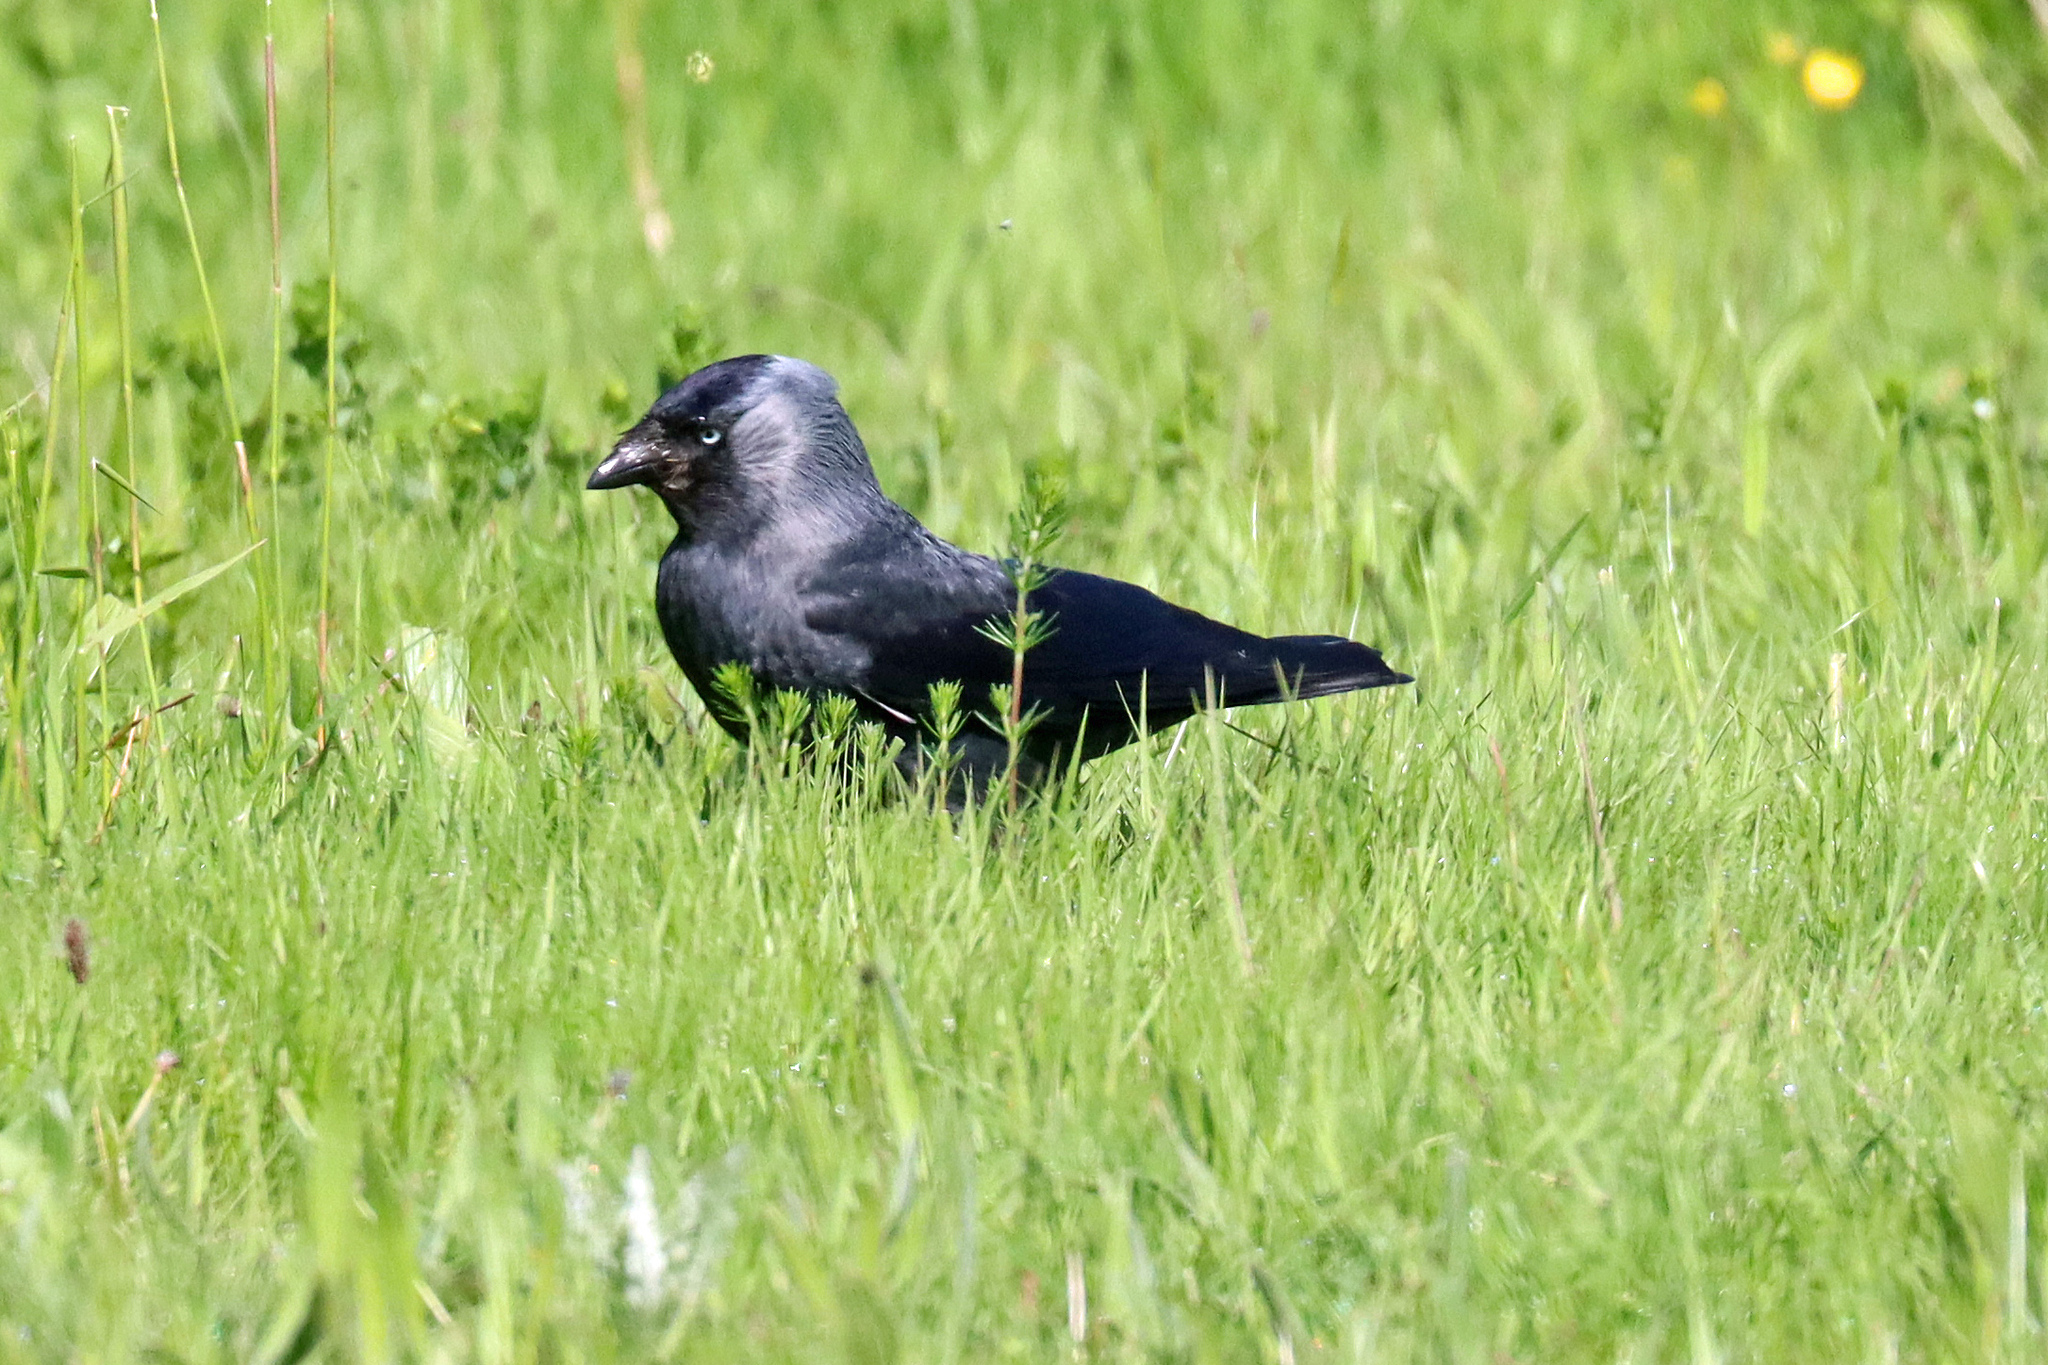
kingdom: Animalia
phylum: Chordata
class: Aves
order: Passeriformes
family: Corvidae
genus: Coloeus
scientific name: Coloeus monedula
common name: Western jackdaw
